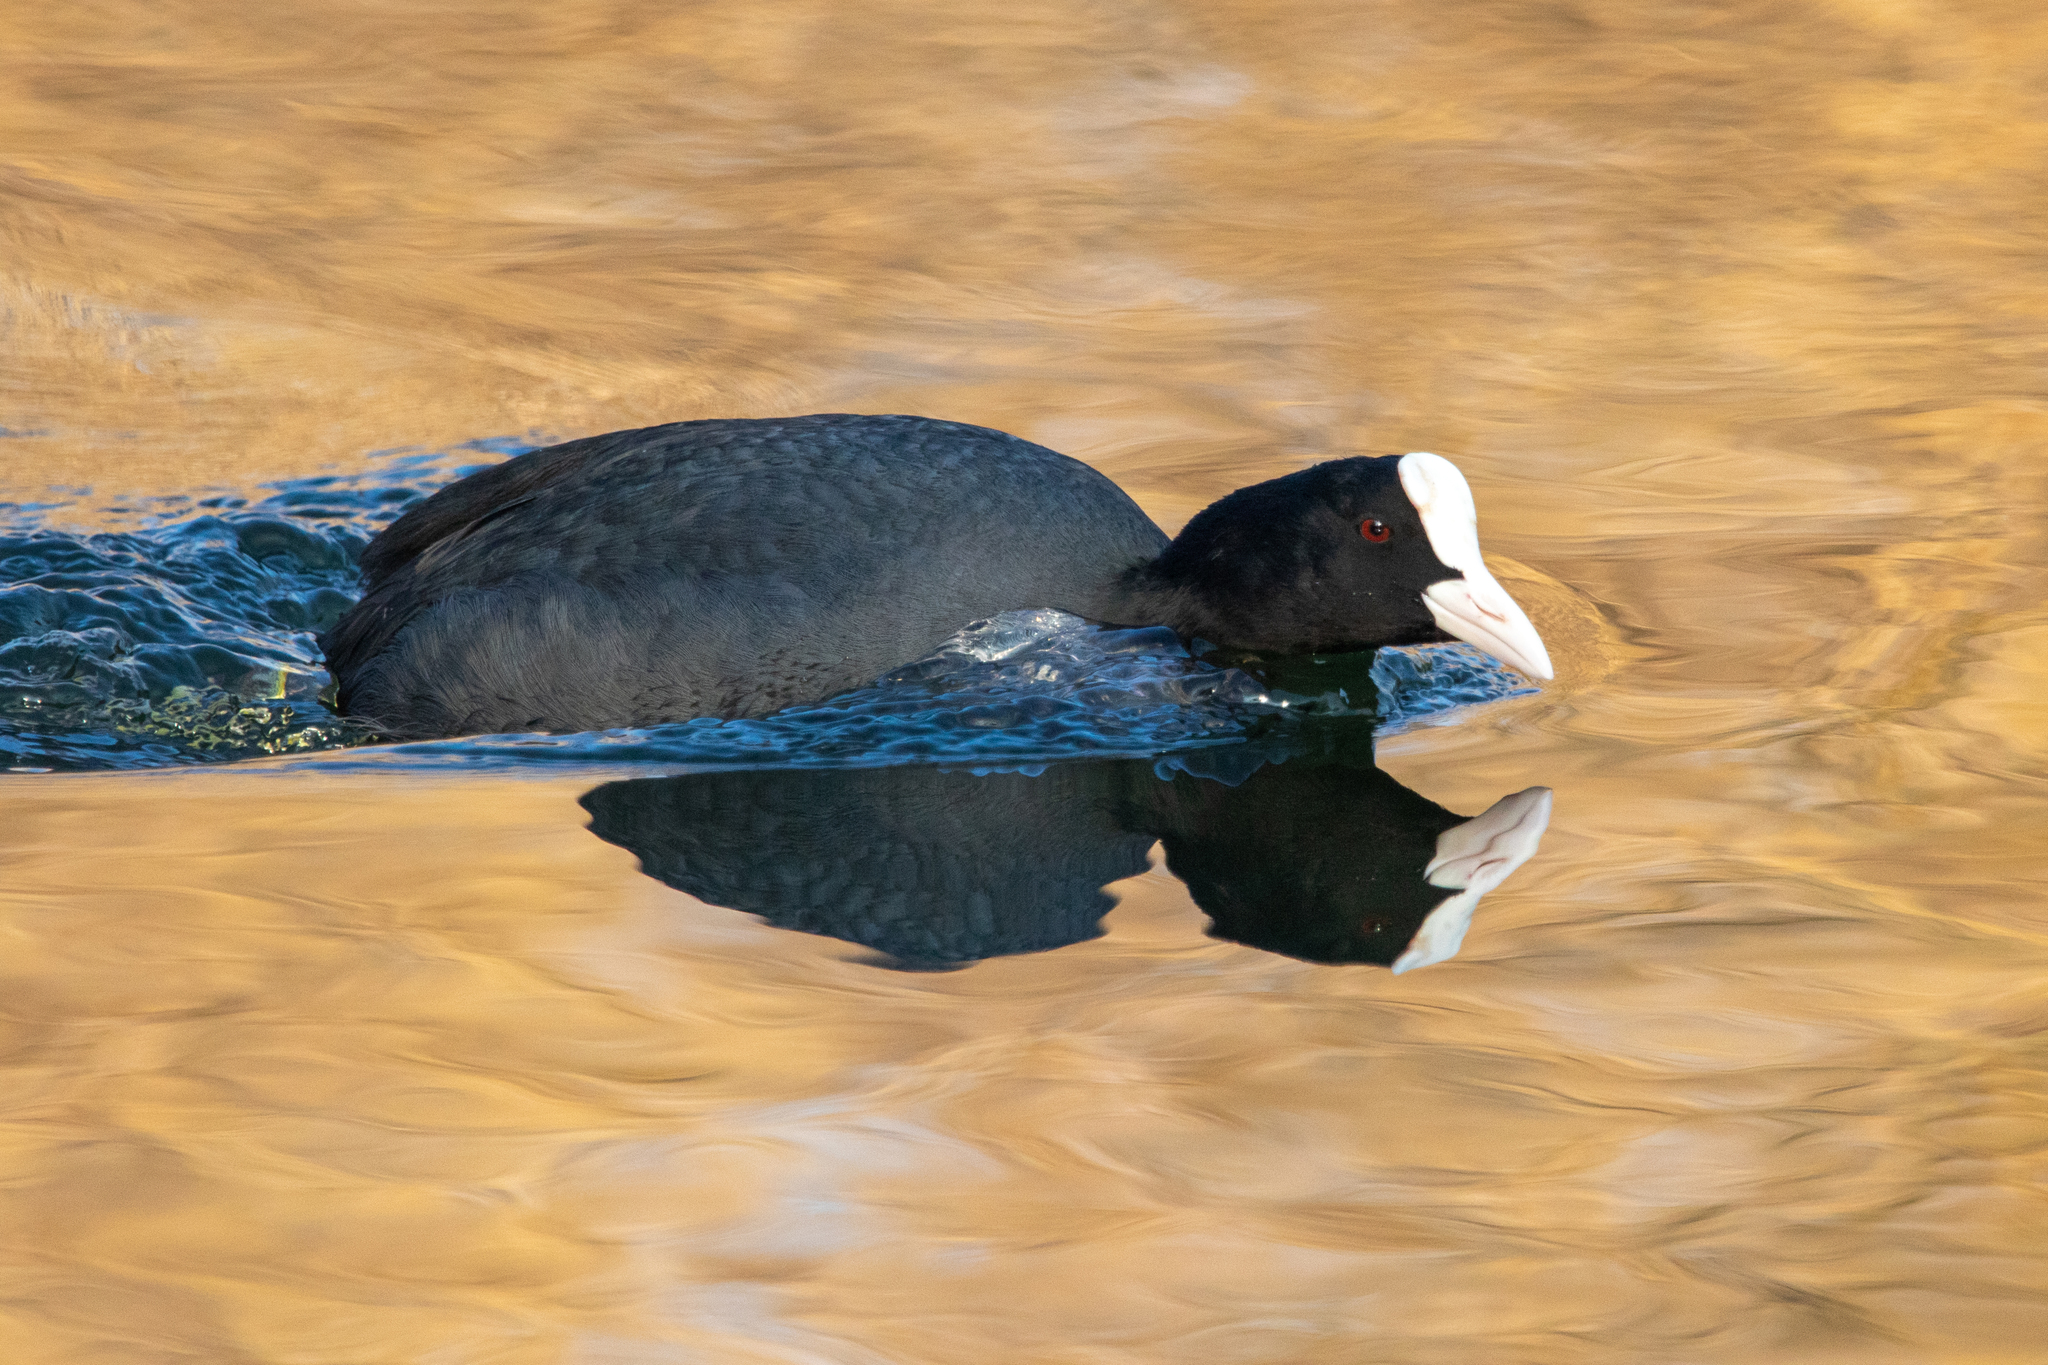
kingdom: Animalia
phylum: Chordata
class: Aves
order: Gruiformes
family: Rallidae
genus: Fulica
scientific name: Fulica atra
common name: Eurasian coot
